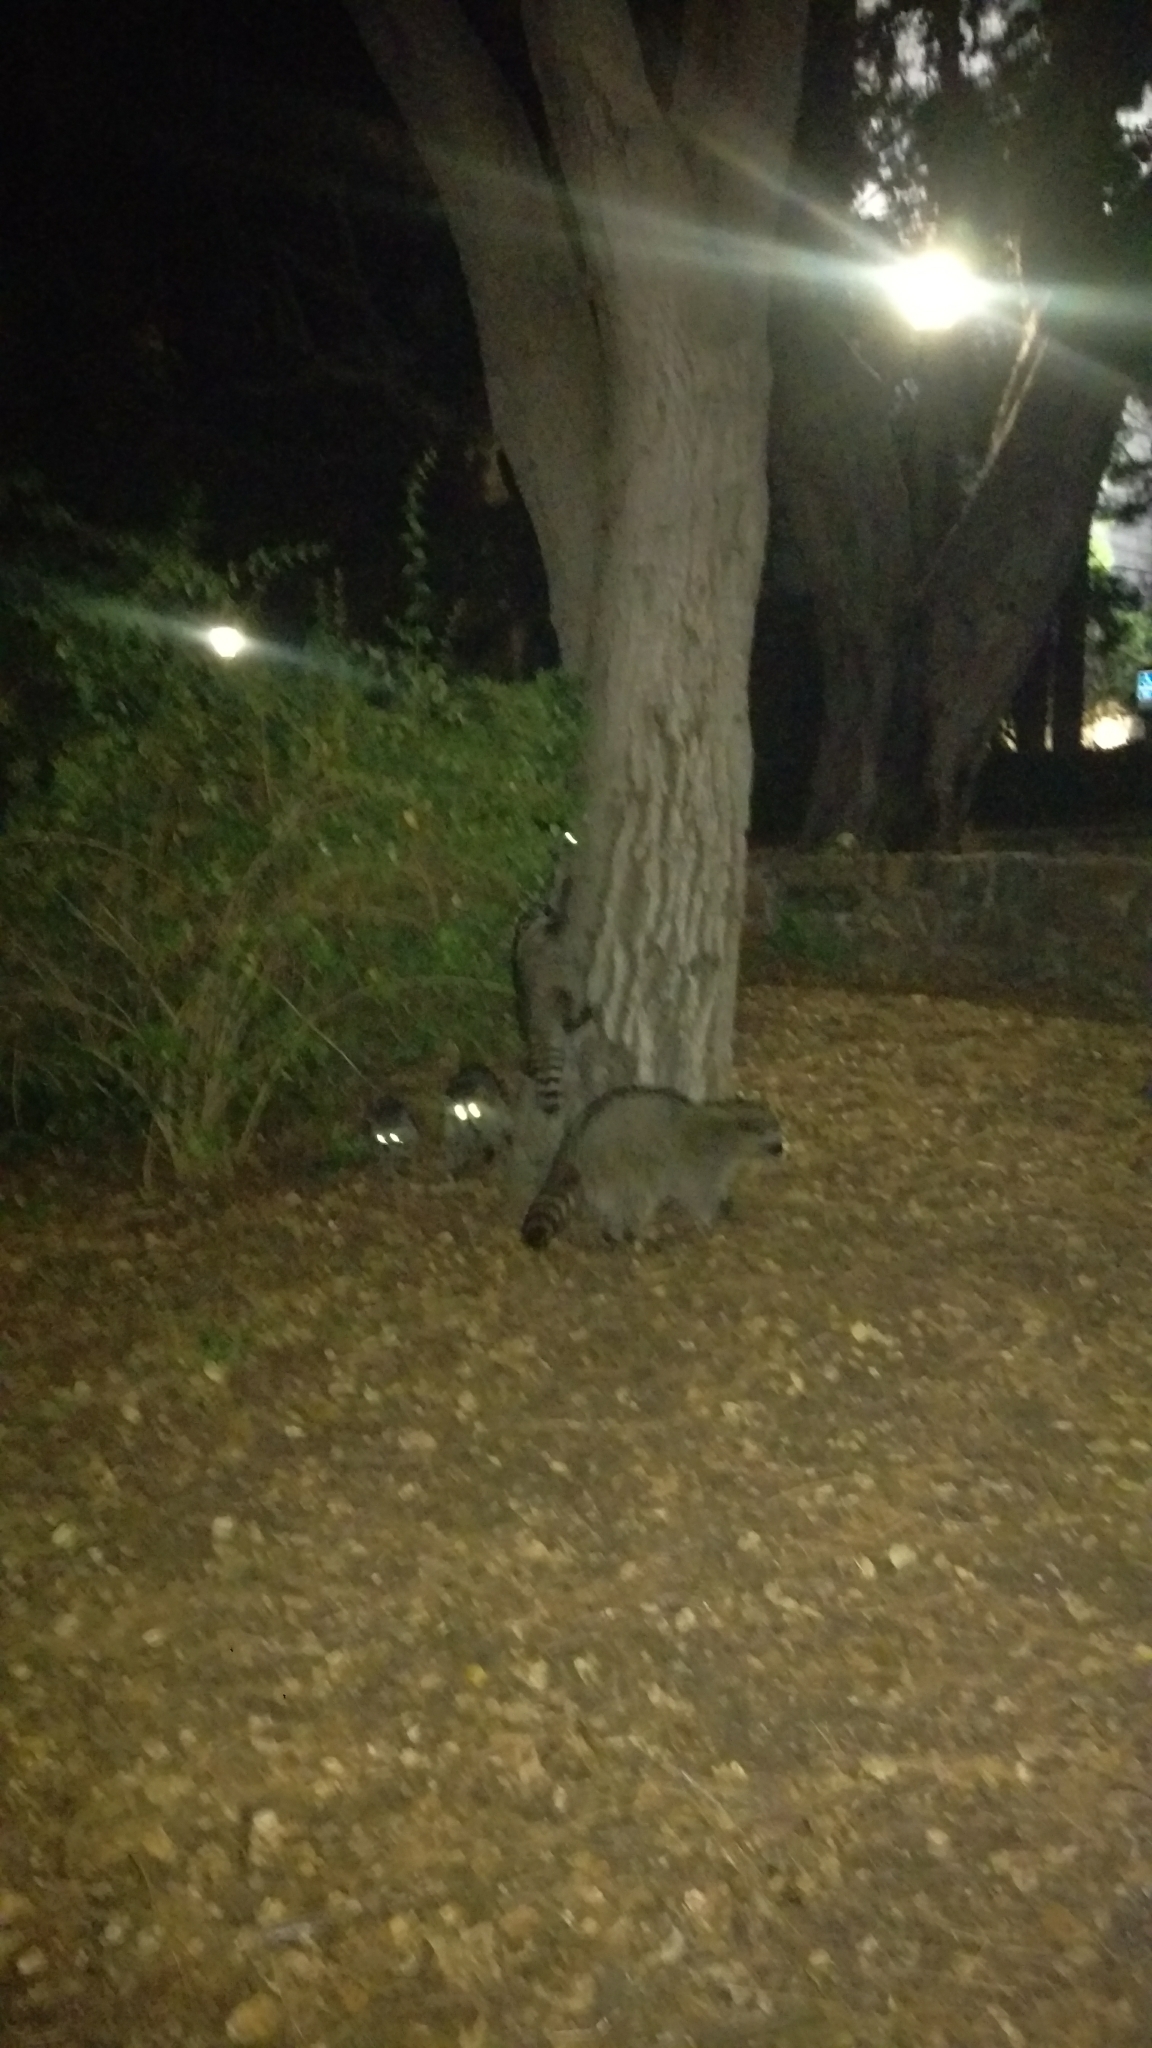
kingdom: Animalia
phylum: Chordata
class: Mammalia
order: Carnivora
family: Procyonidae
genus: Procyon
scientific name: Procyon lotor
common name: Raccoon
